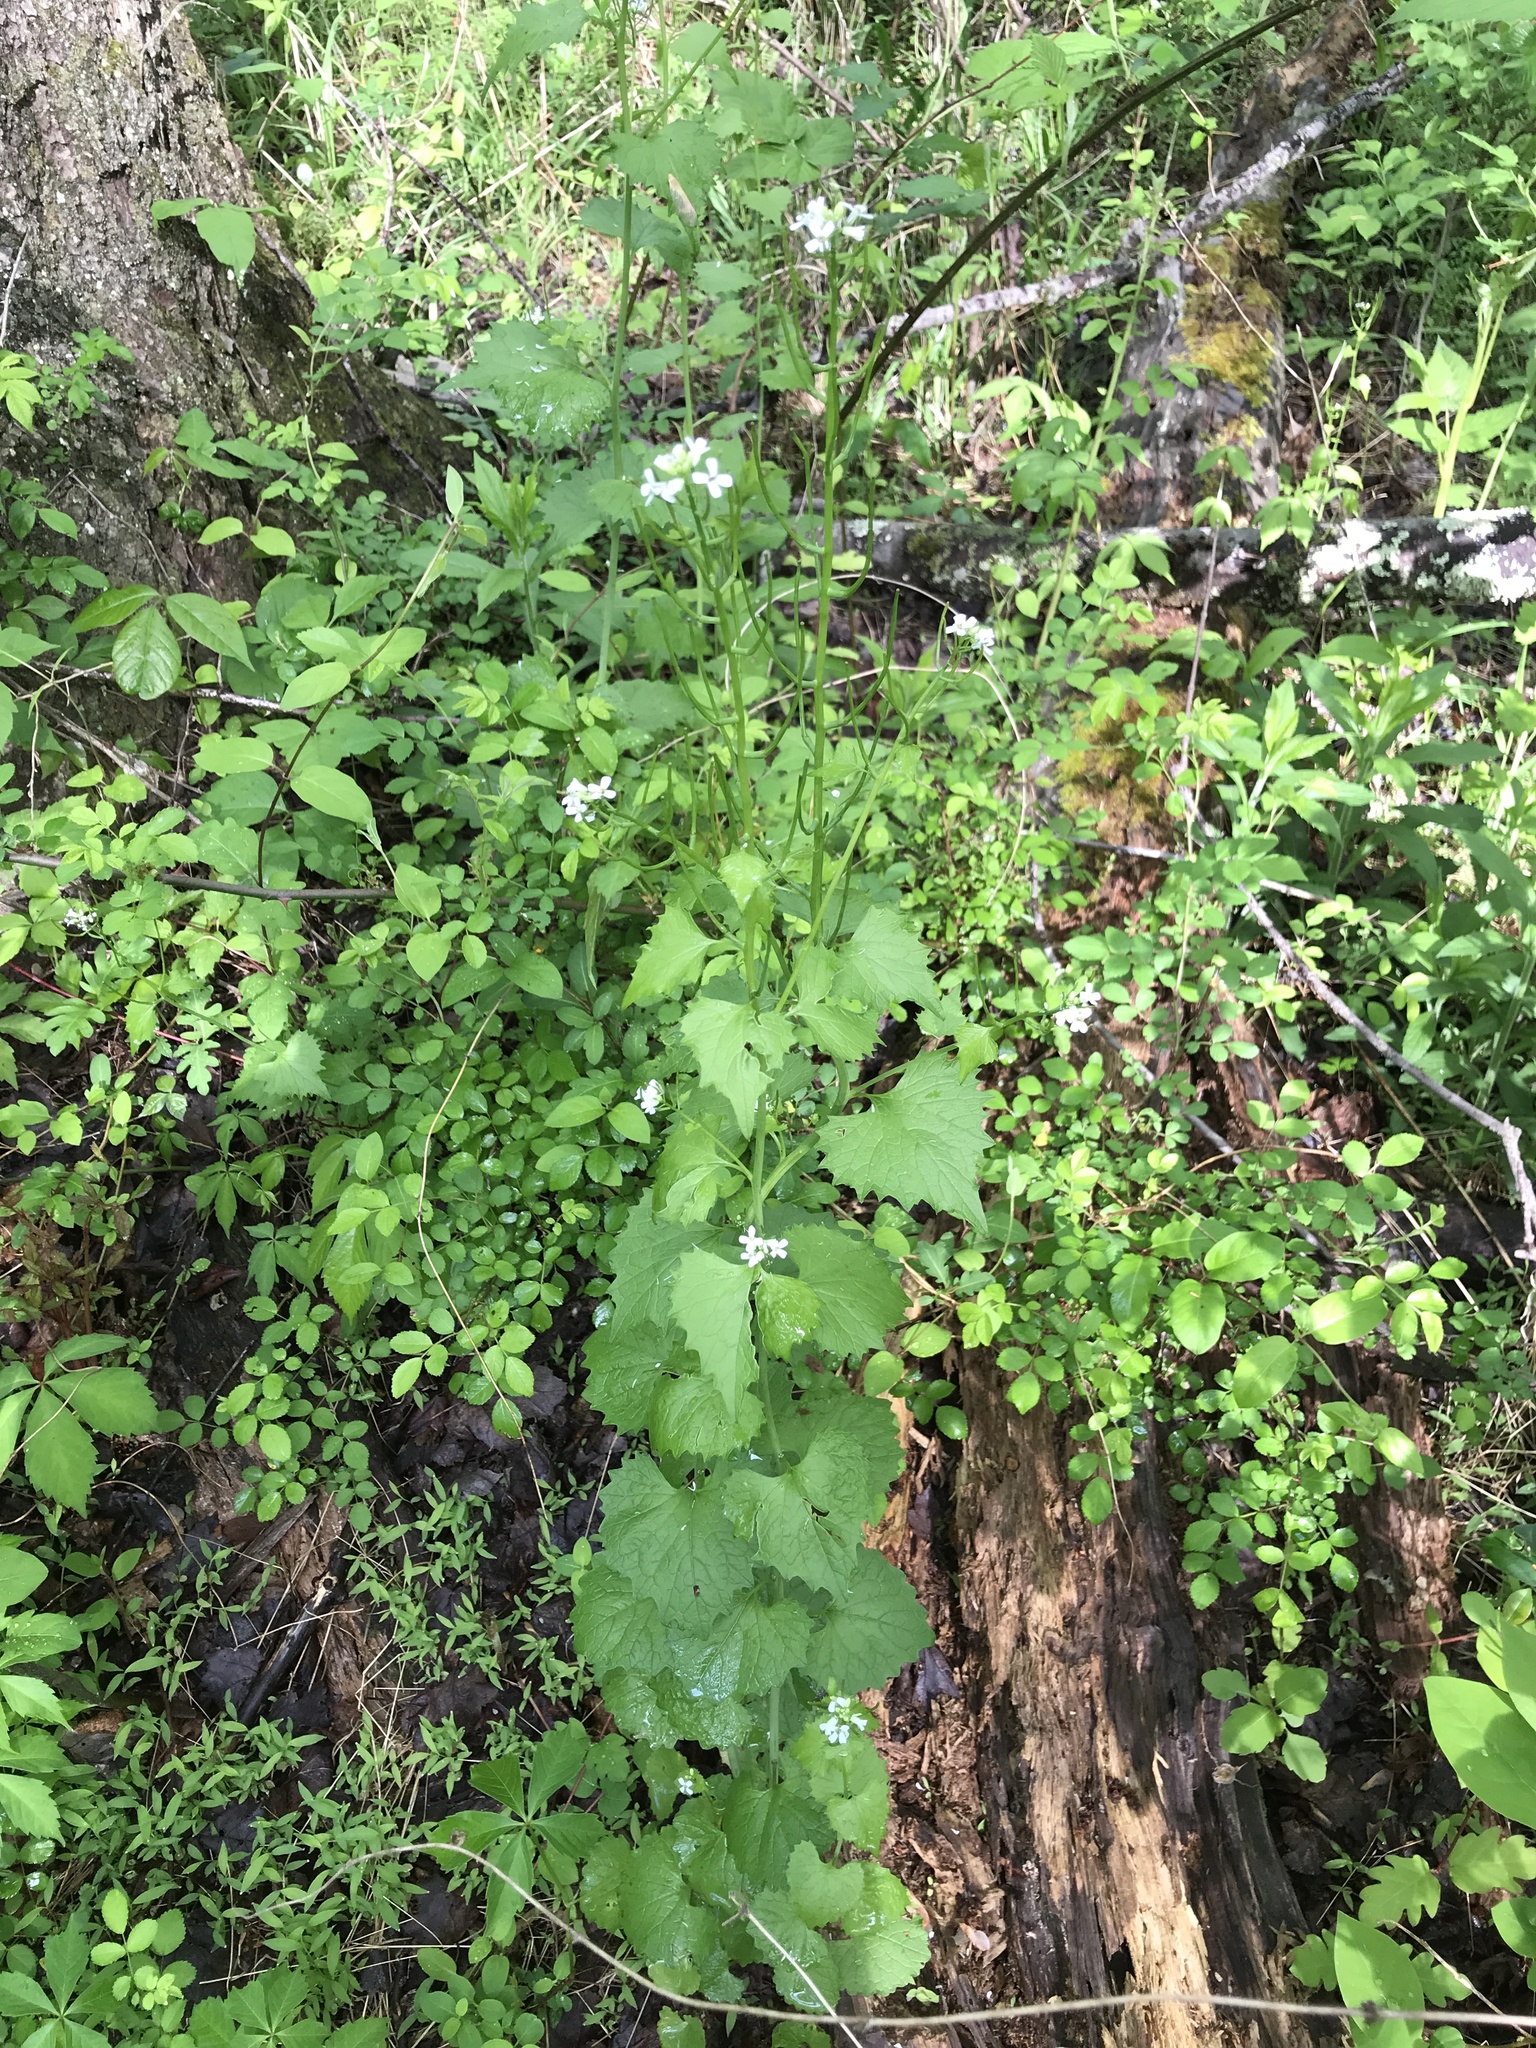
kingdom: Plantae
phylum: Tracheophyta
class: Magnoliopsida
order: Brassicales
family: Brassicaceae
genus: Alliaria
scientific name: Alliaria petiolata
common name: Garlic mustard
